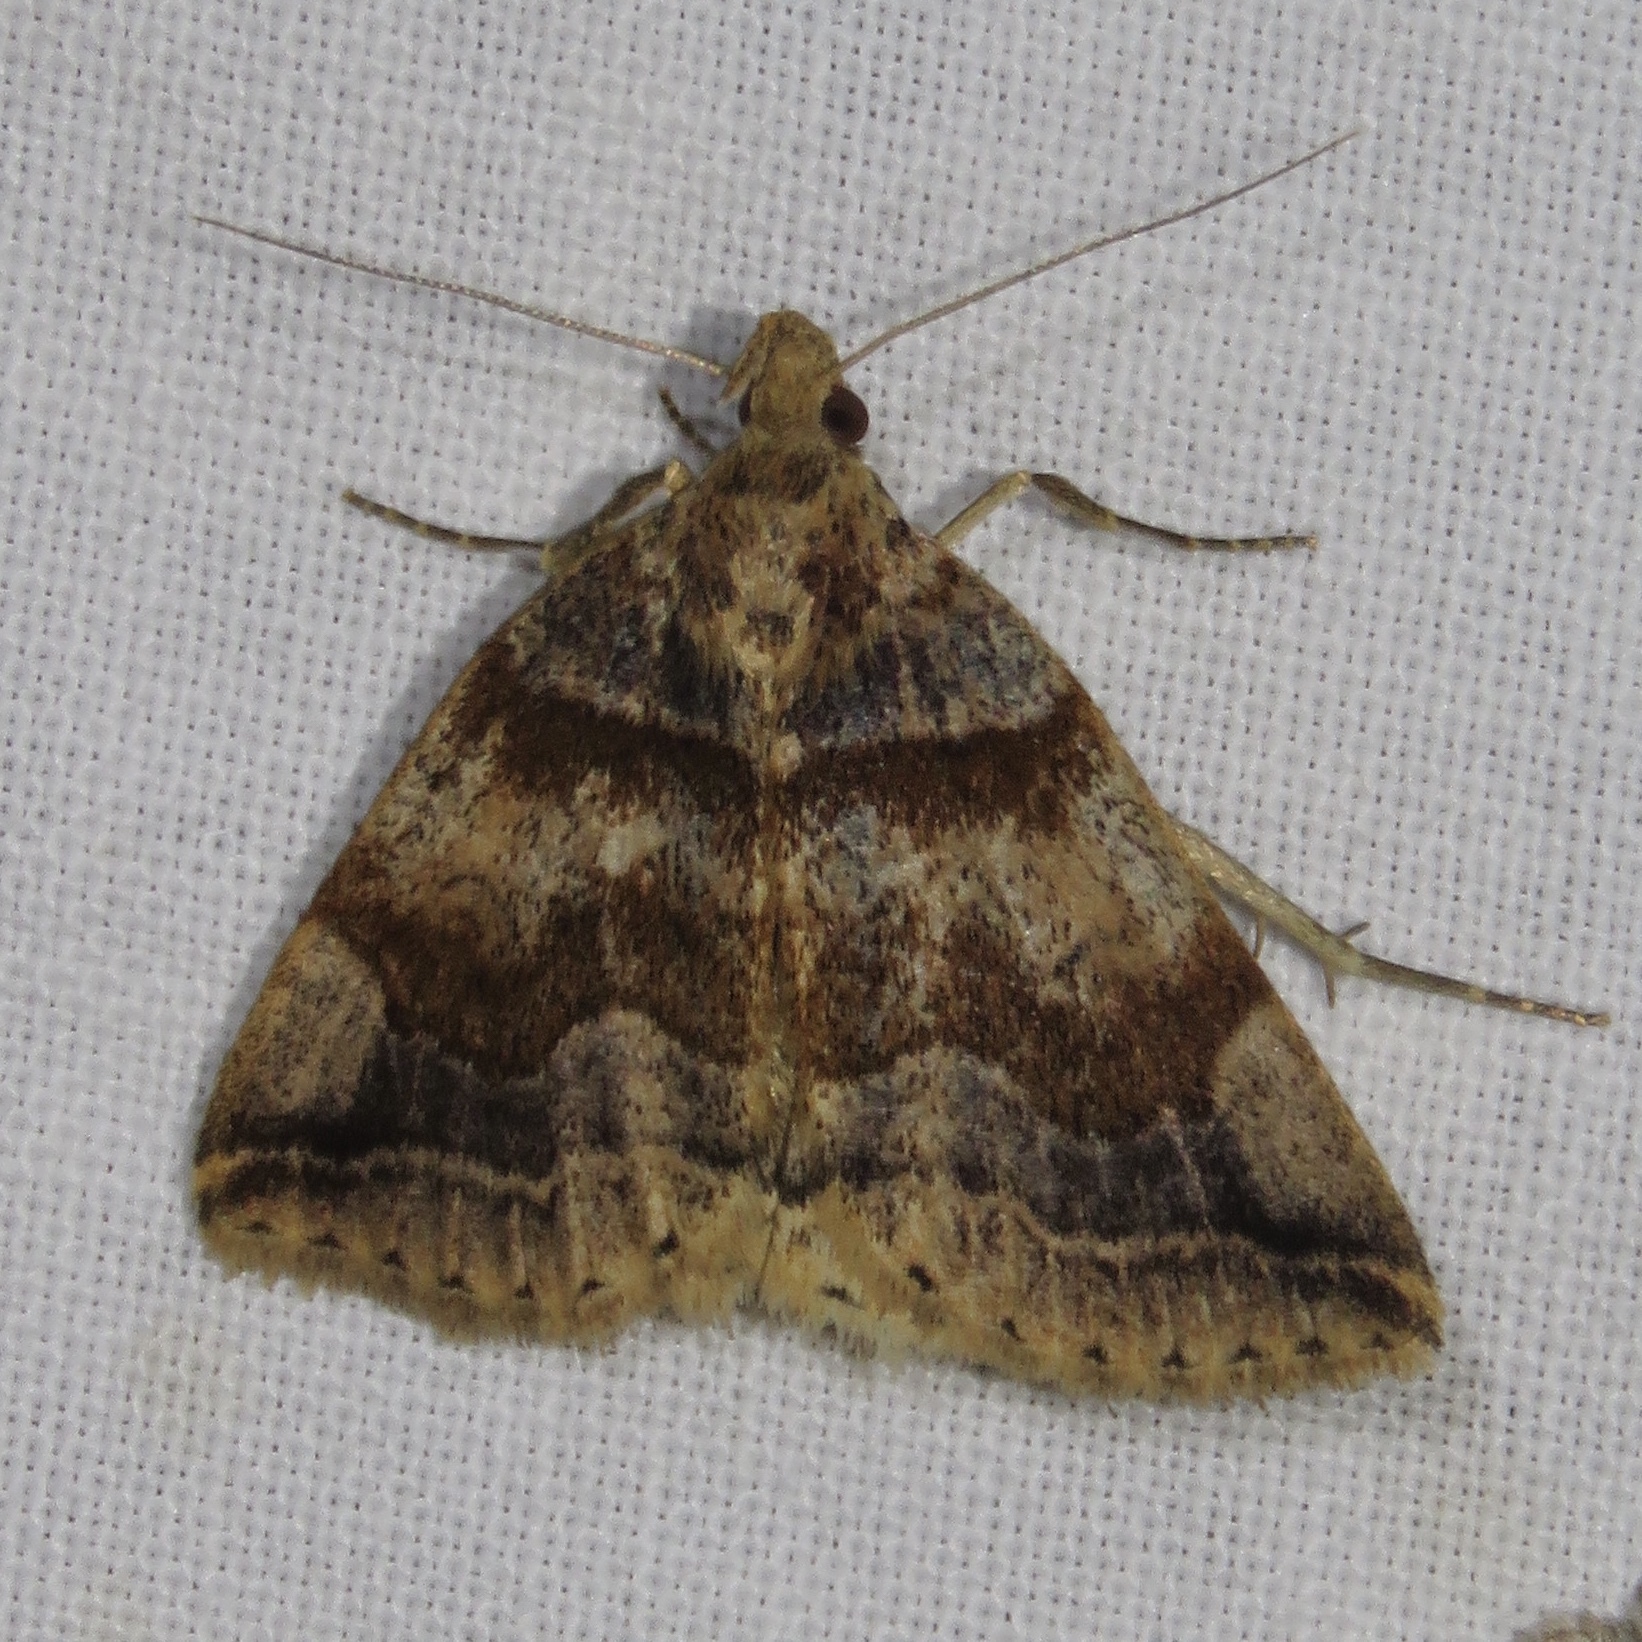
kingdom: Animalia
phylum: Arthropoda
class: Insecta
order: Lepidoptera
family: Erebidae
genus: Zanclognatha
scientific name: Zanclognatha laevigata
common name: Variable fan-foot
